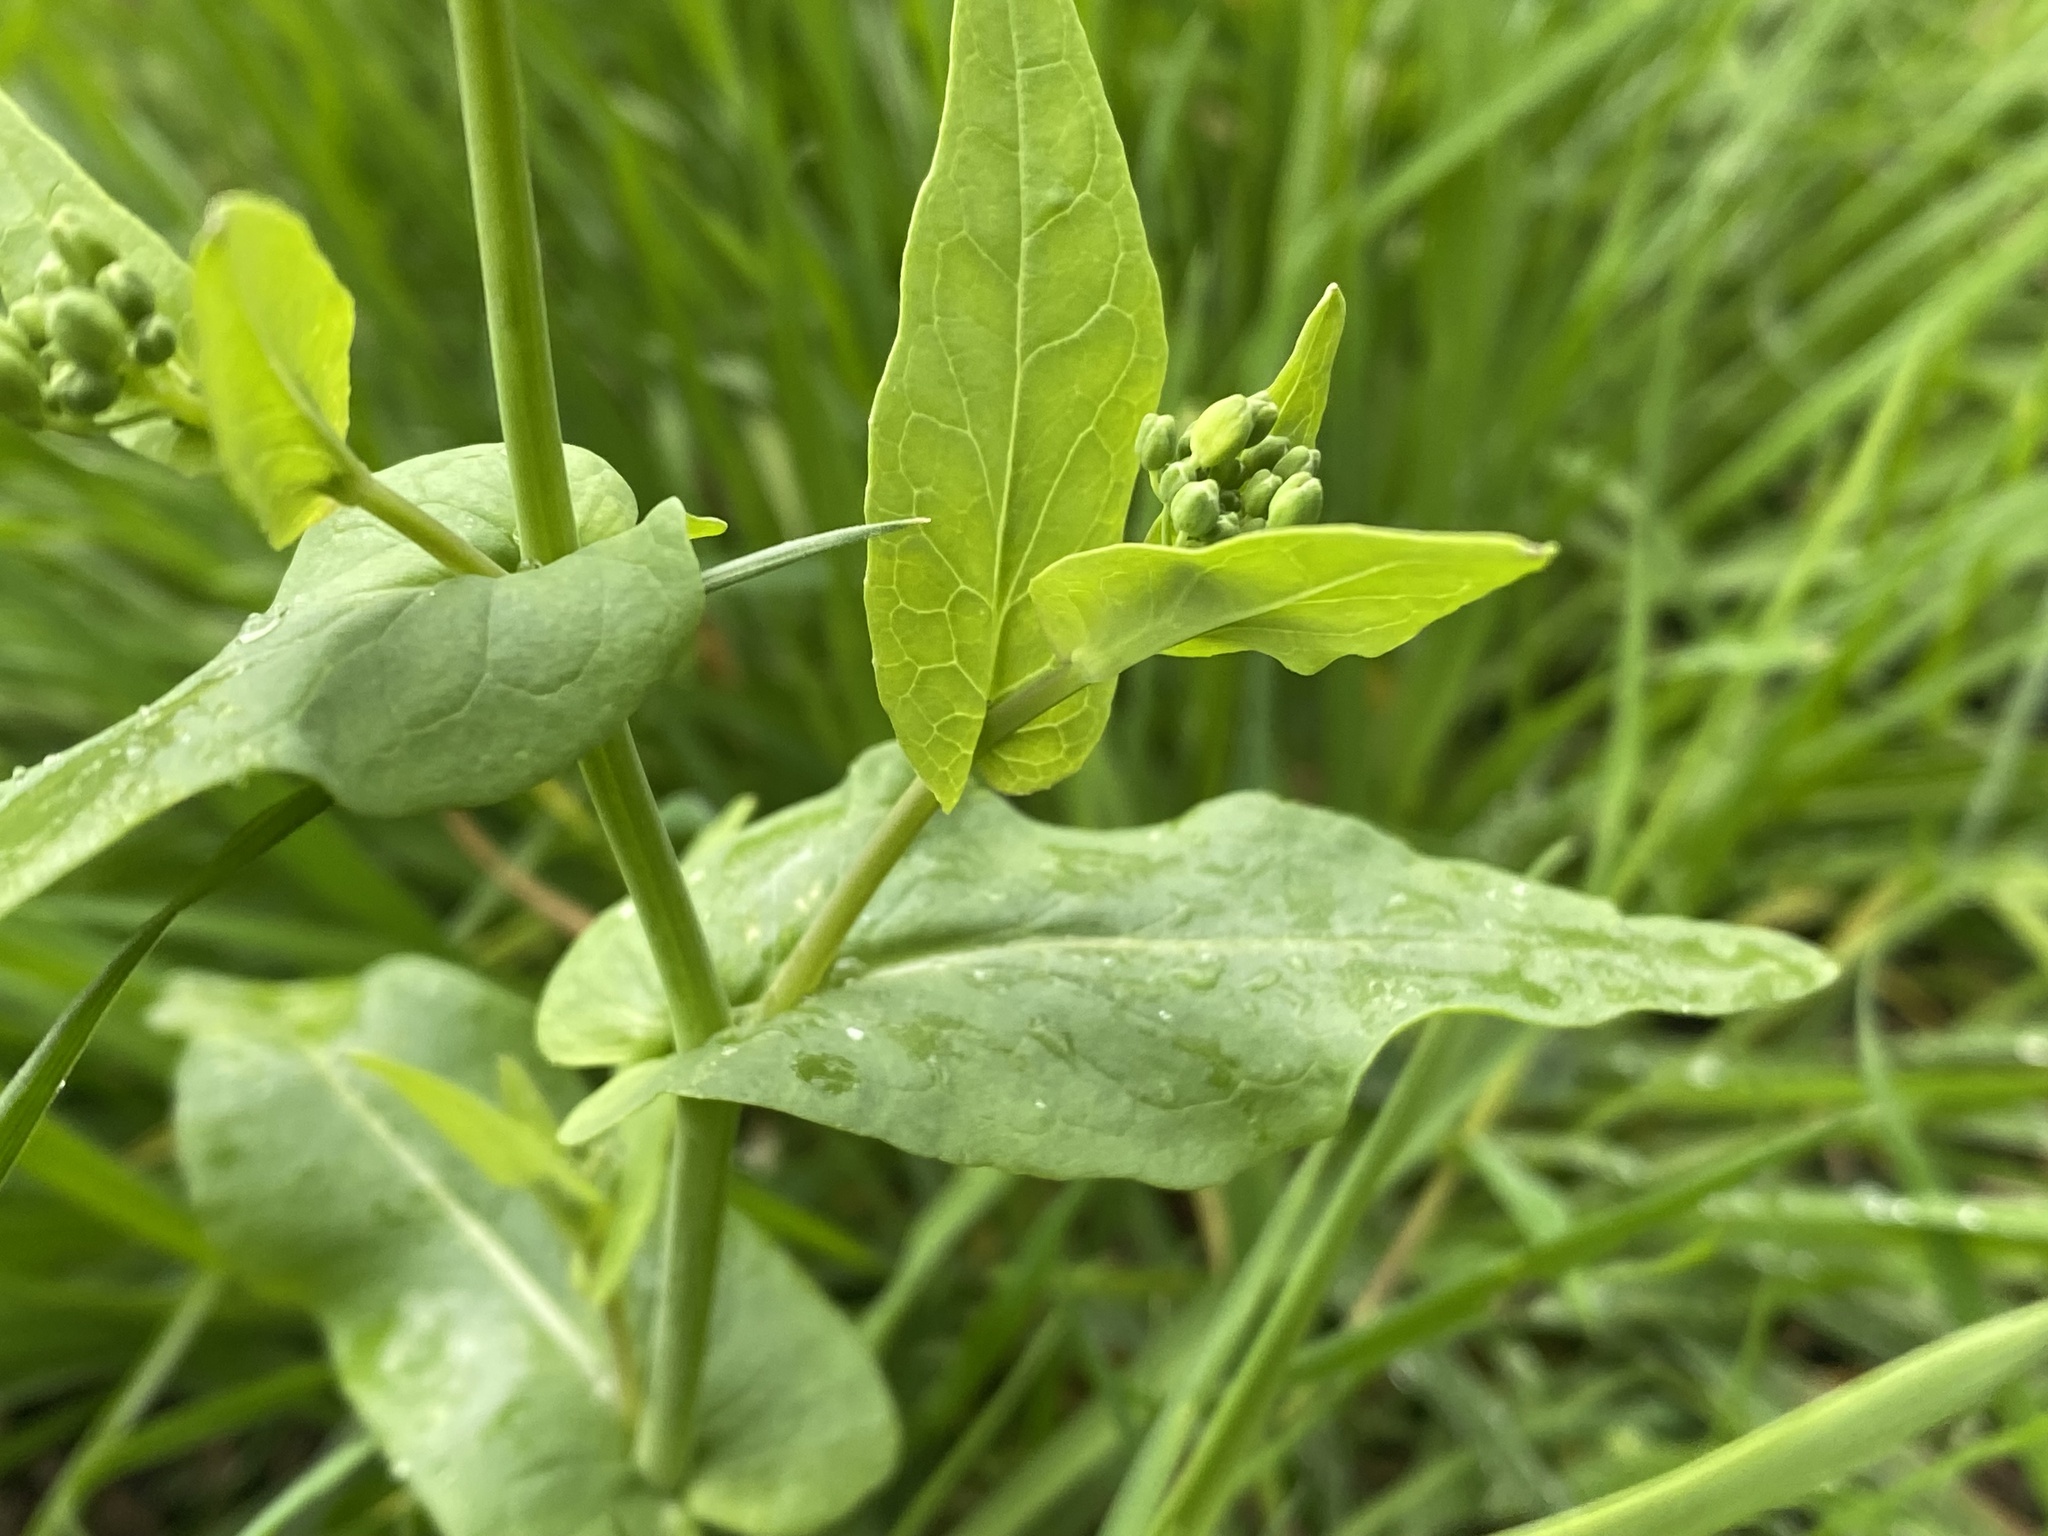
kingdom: Plantae
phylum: Tracheophyta
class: Magnoliopsida
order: Brassicales
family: Brassicaceae
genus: Brassica
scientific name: Brassica rapa
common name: Field mustard
